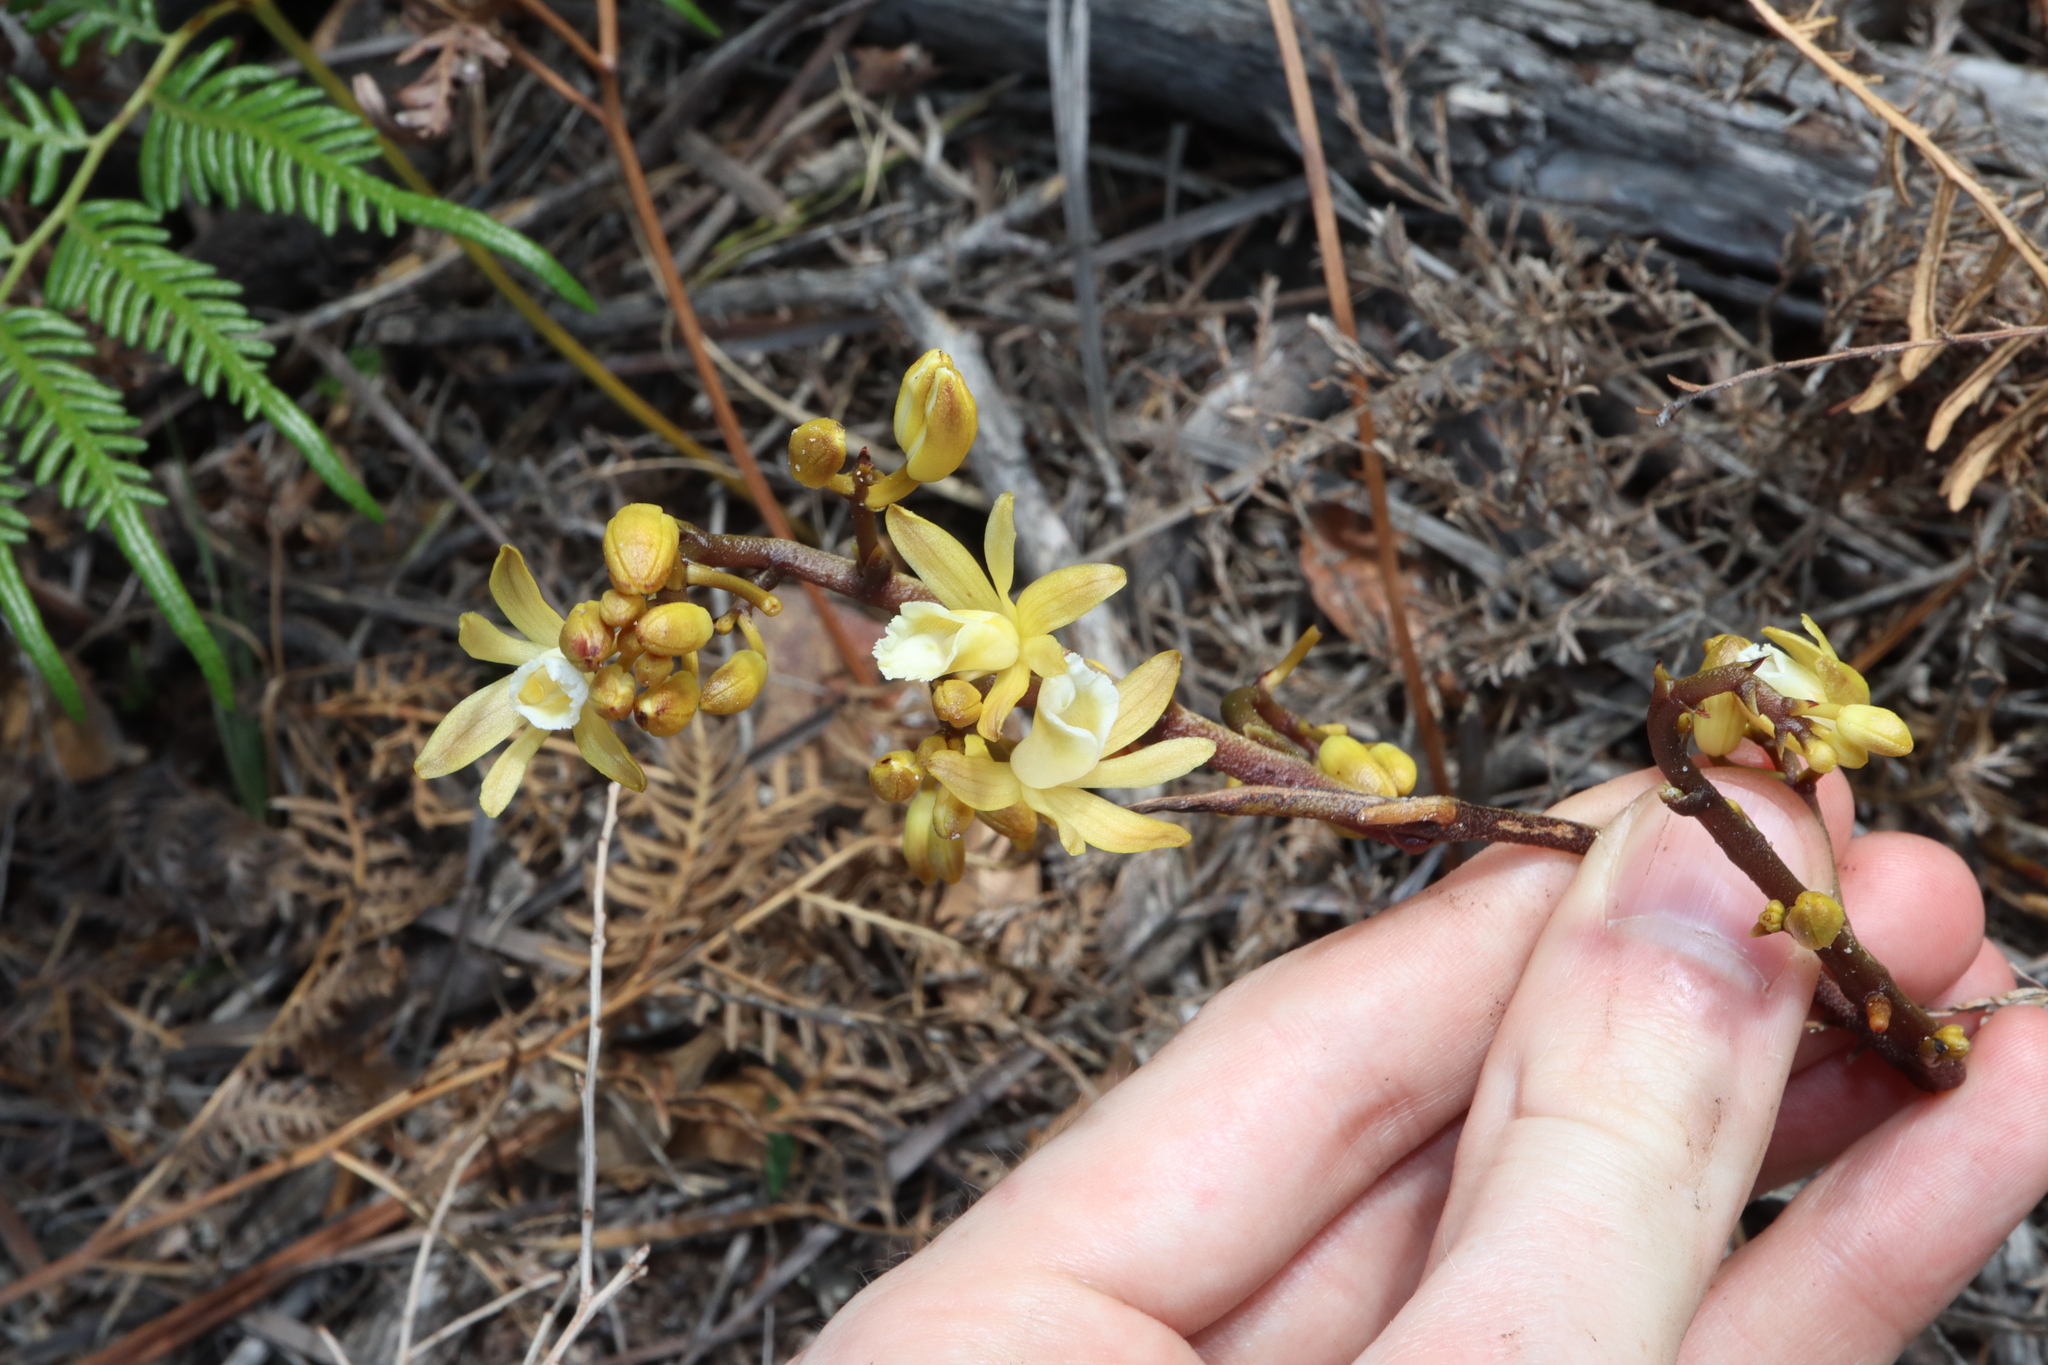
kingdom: Plantae
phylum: Tracheophyta
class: Liliopsida
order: Asparagales
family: Orchidaceae
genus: Erythrorchis
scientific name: Erythrorchis cassythoides
